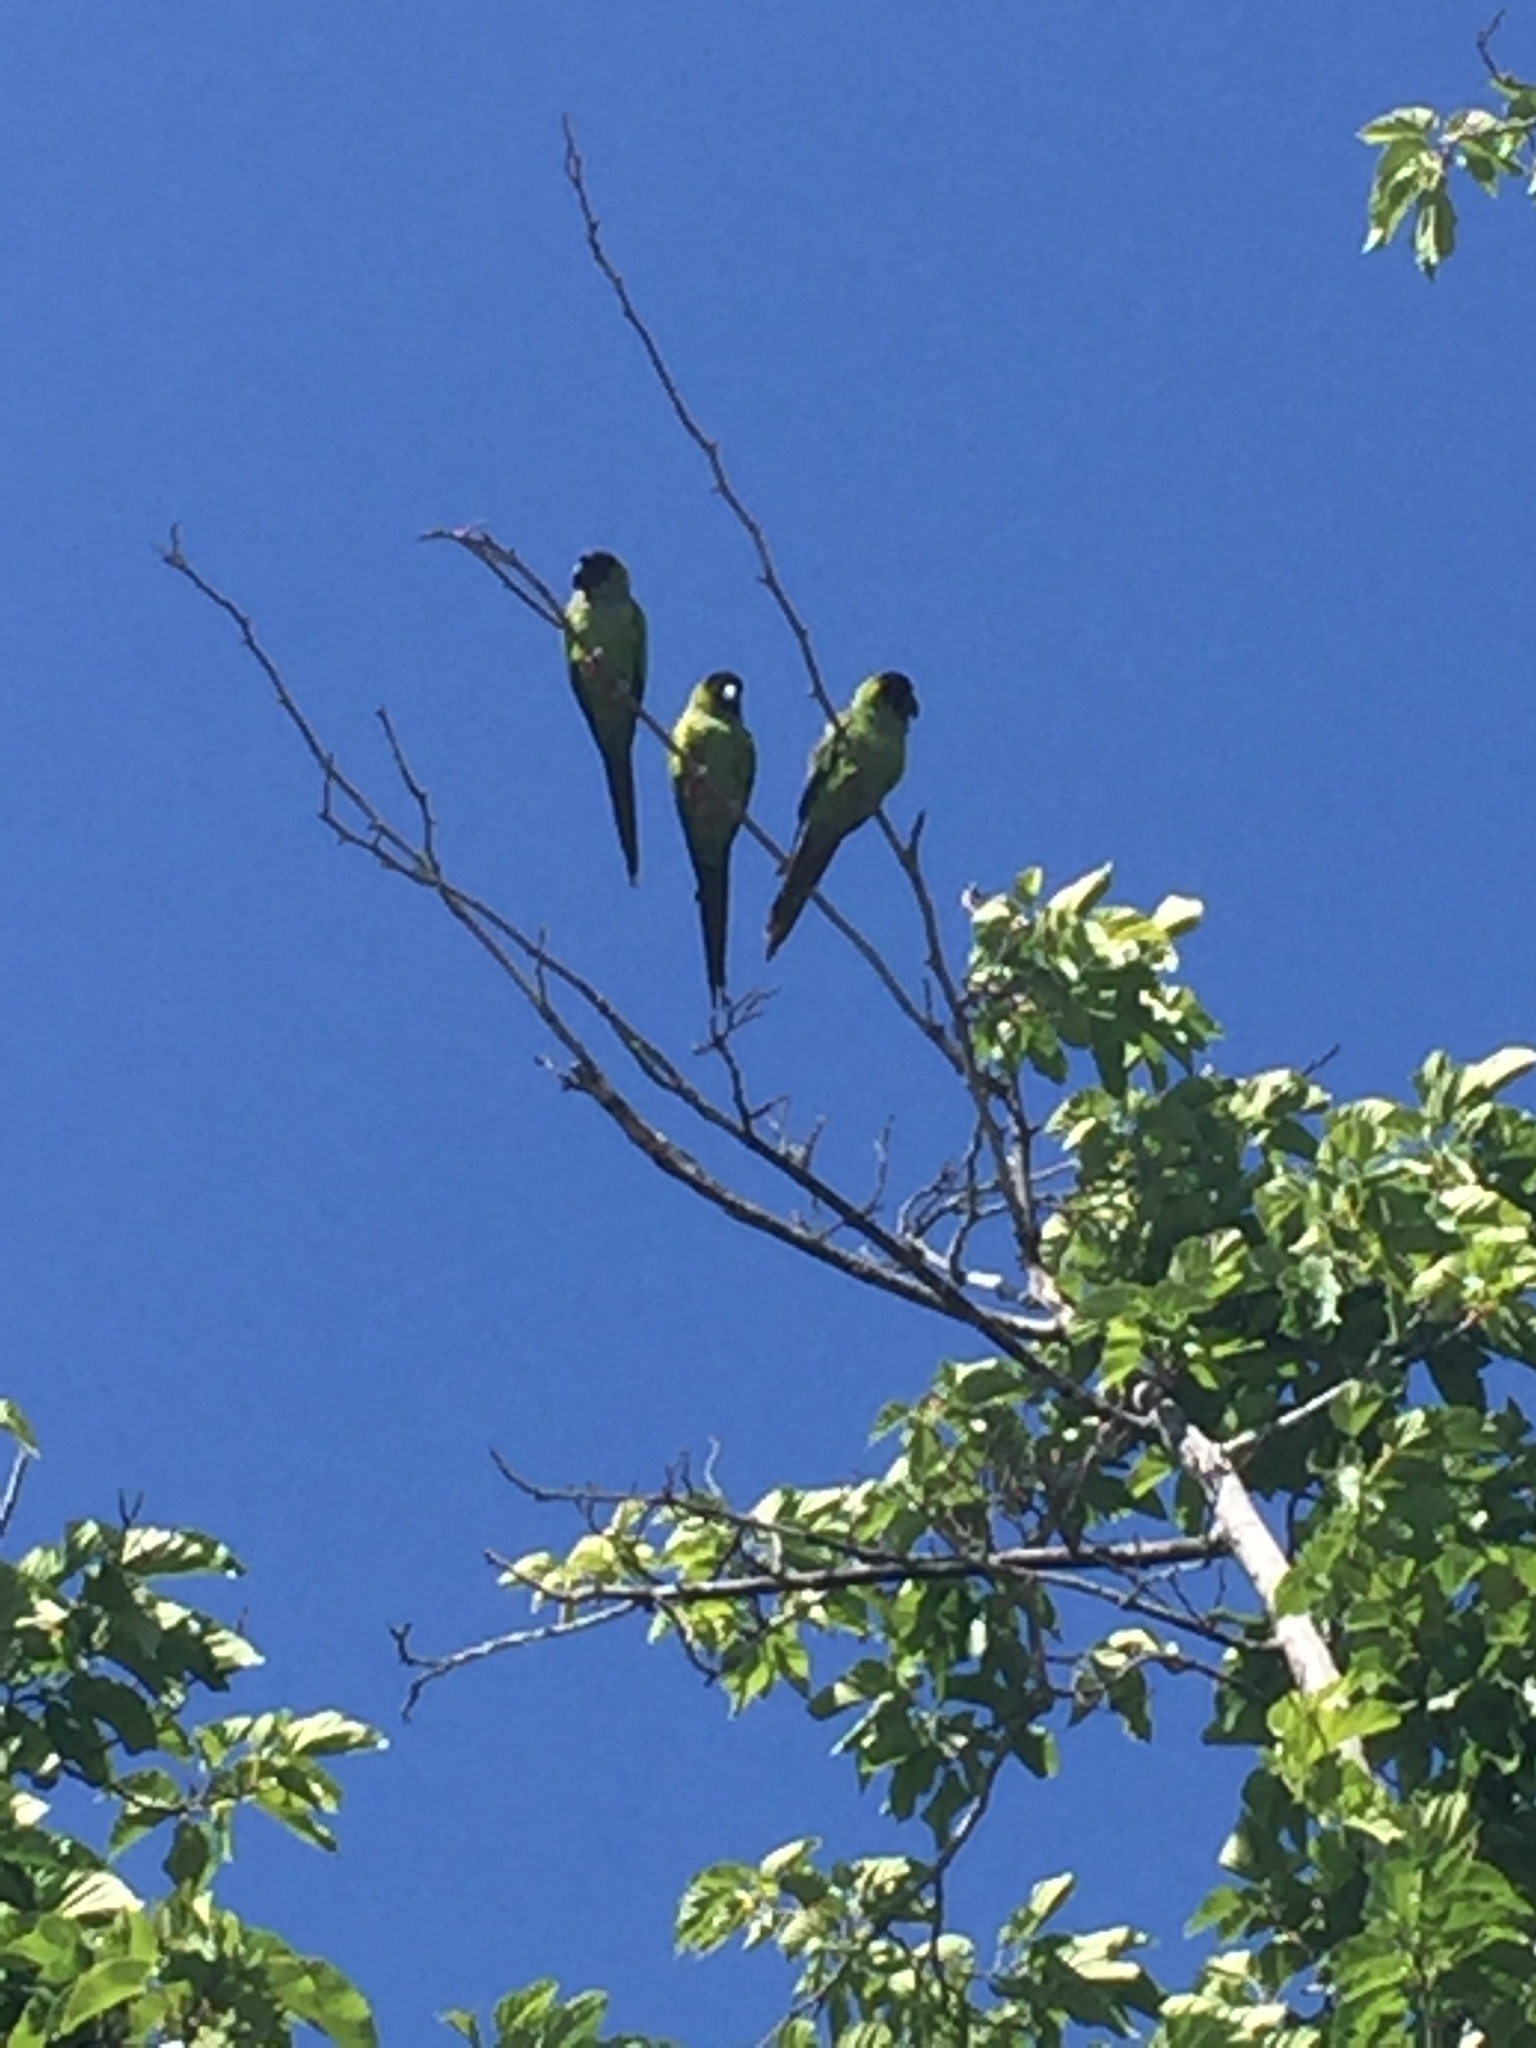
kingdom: Animalia
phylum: Chordata
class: Aves
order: Psittaciformes
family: Psittacidae
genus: Nandayus
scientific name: Nandayus nenday
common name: Nanday parakeet
